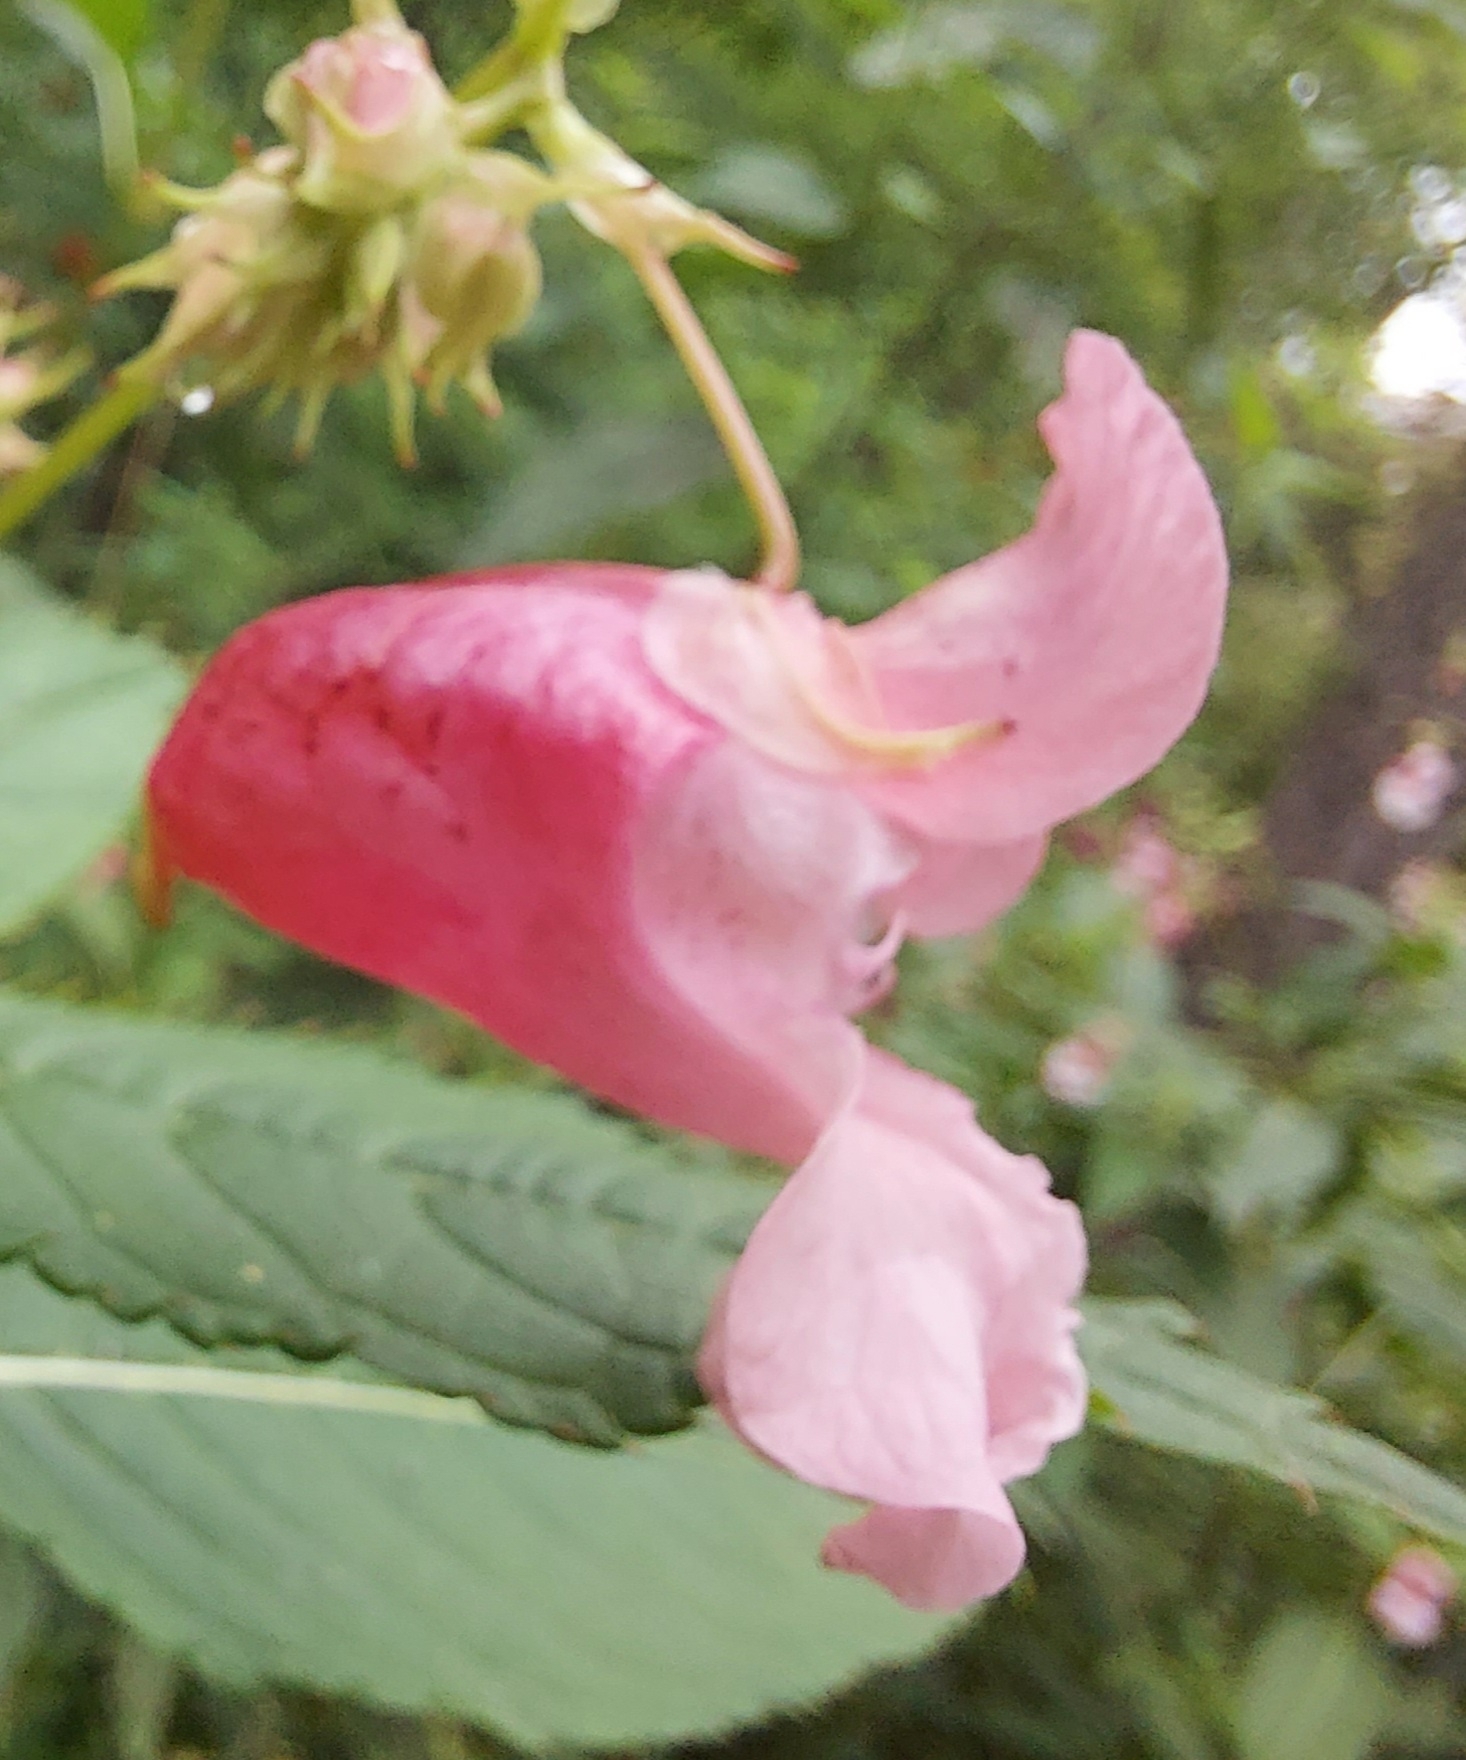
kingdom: Plantae
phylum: Tracheophyta
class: Magnoliopsida
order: Ericales
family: Balsaminaceae
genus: Impatiens
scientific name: Impatiens glandulifera
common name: Himalayan balsam
